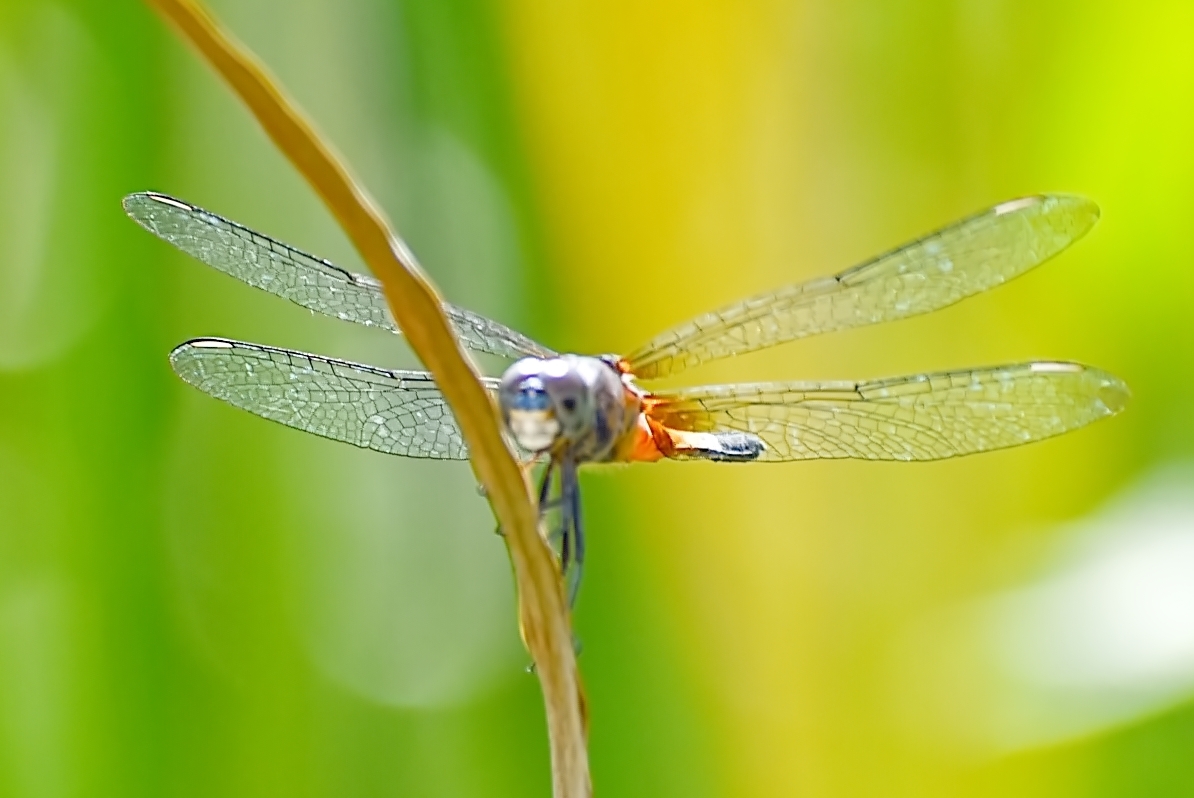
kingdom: Animalia
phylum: Arthropoda
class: Insecta
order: Odonata
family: Libellulidae
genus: Brachydiplax
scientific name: Brachydiplax chalybea
